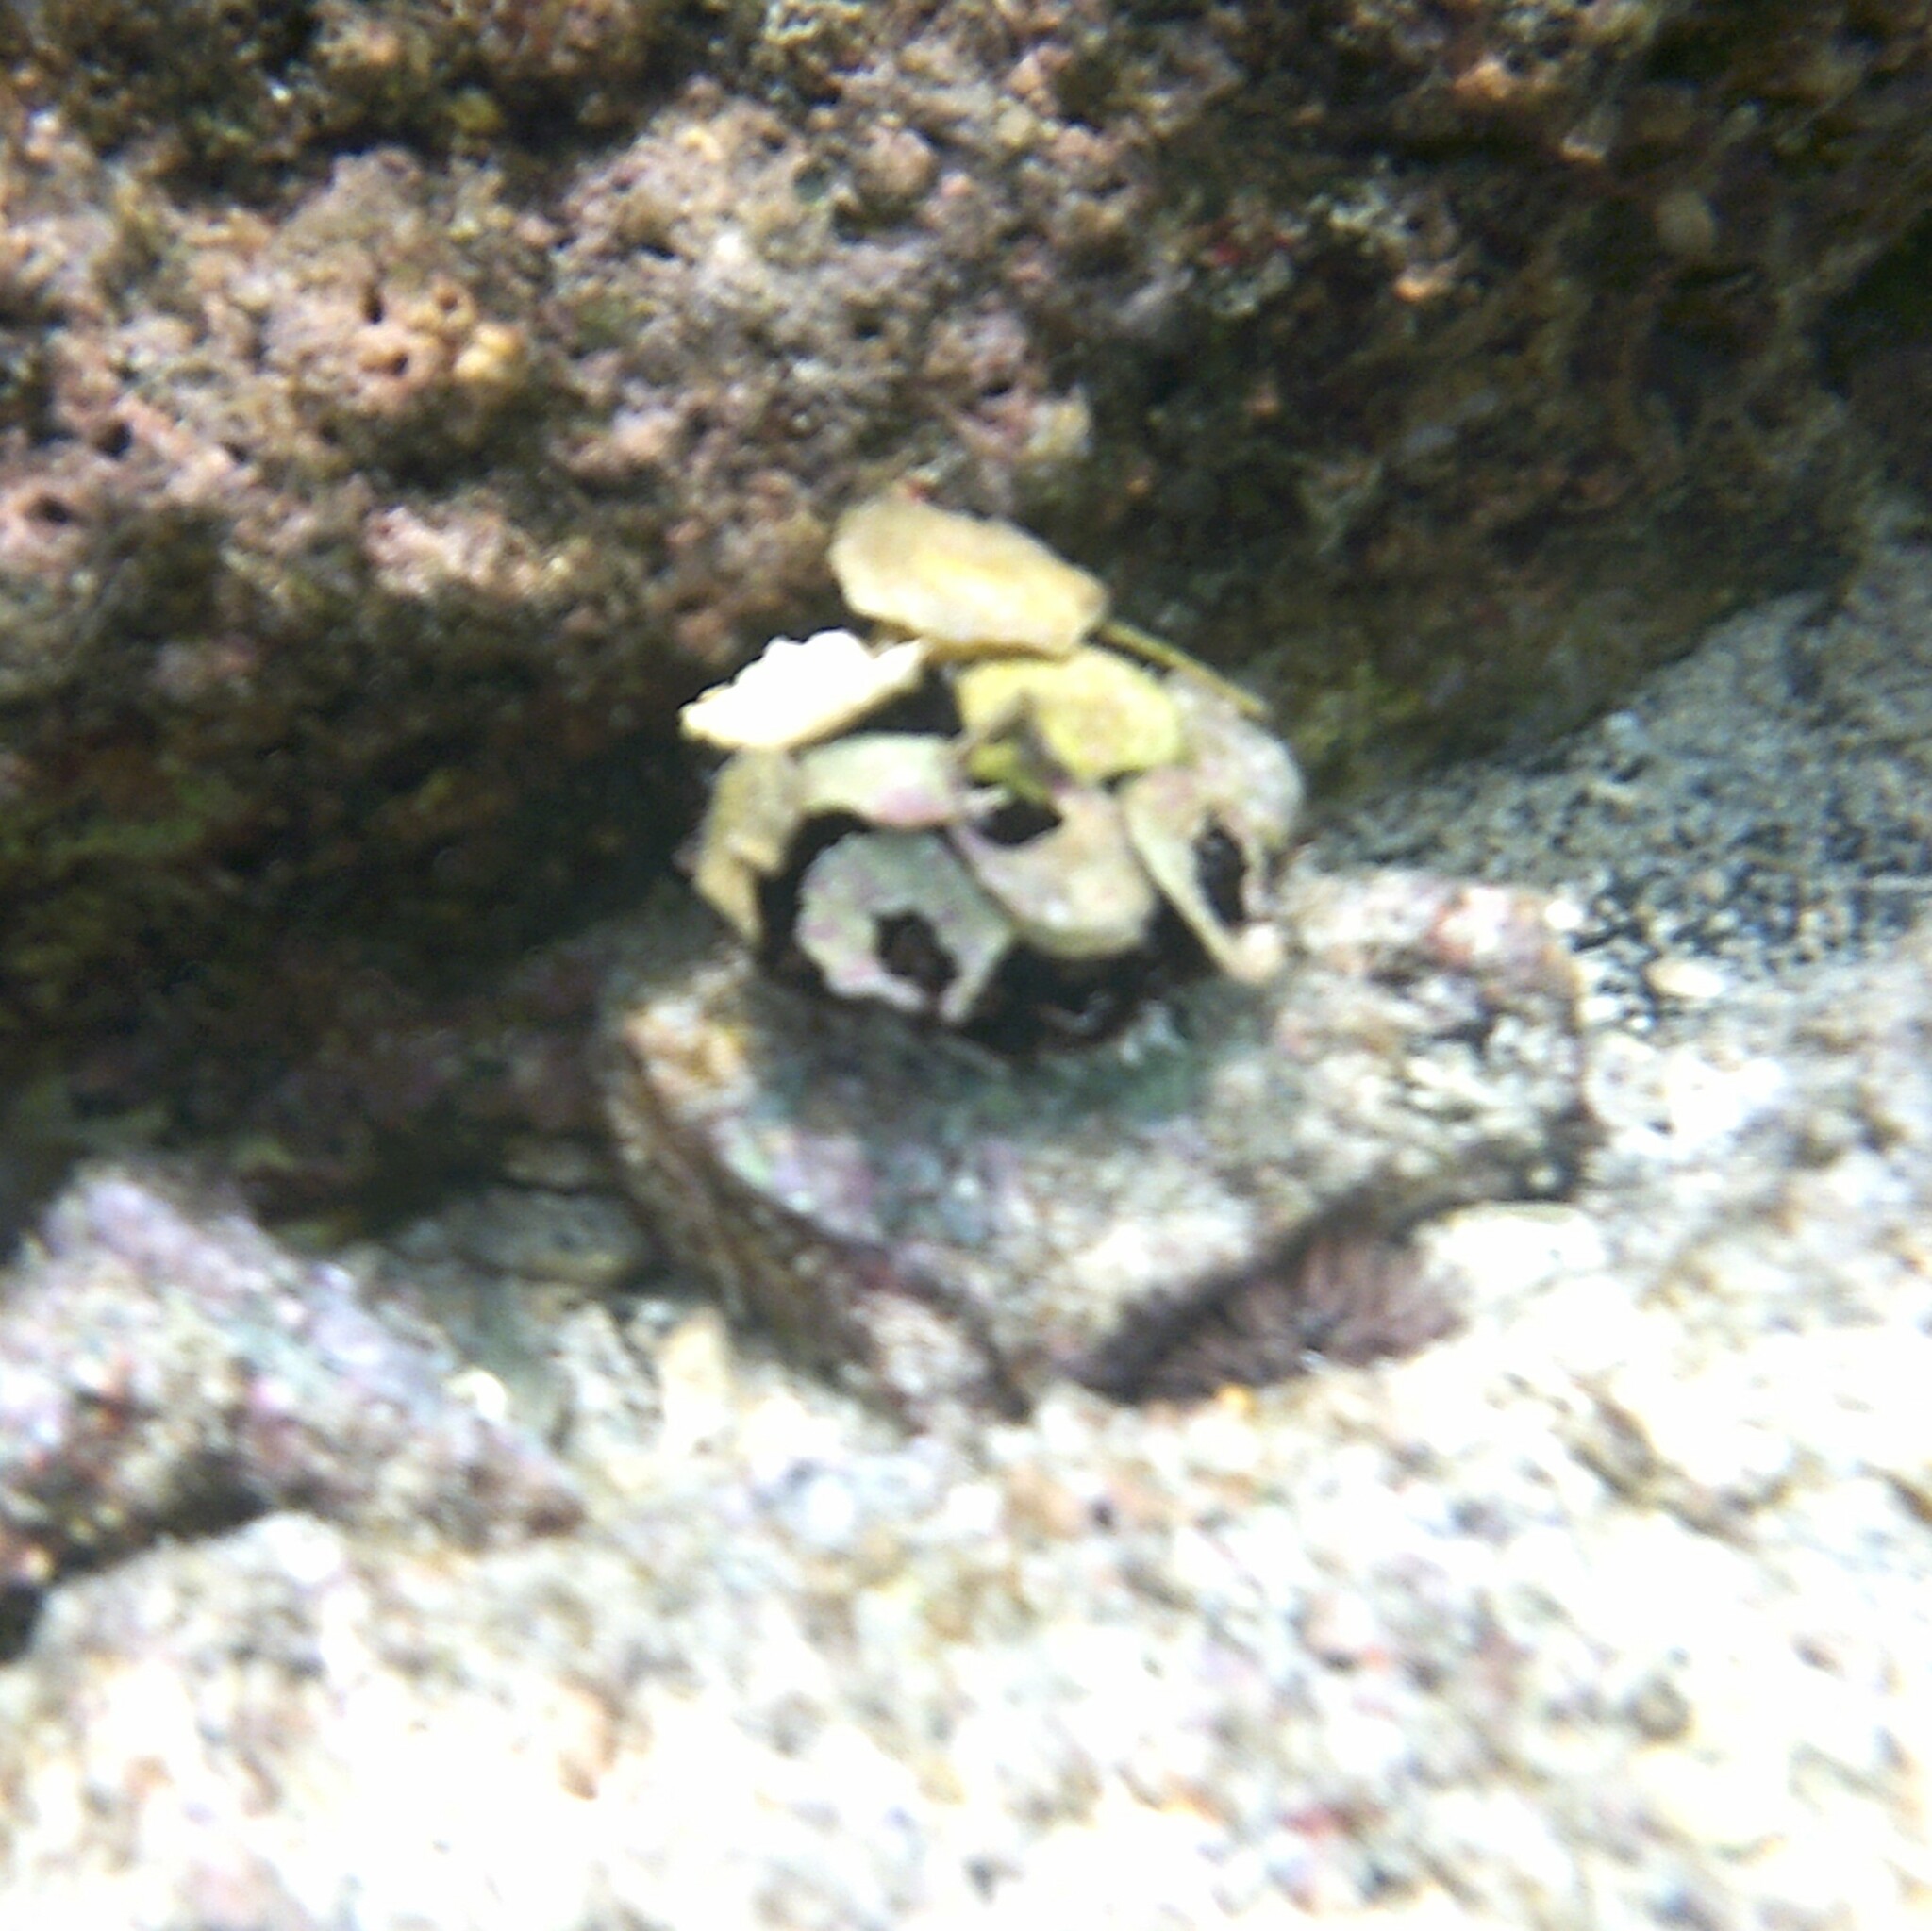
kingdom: Animalia
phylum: Echinodermata
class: Echinoidea
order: Camarodonta
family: Toxopneustidae
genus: Tripneustes
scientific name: Tripneustes gratilla
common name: Bischofsmützenseeigel
